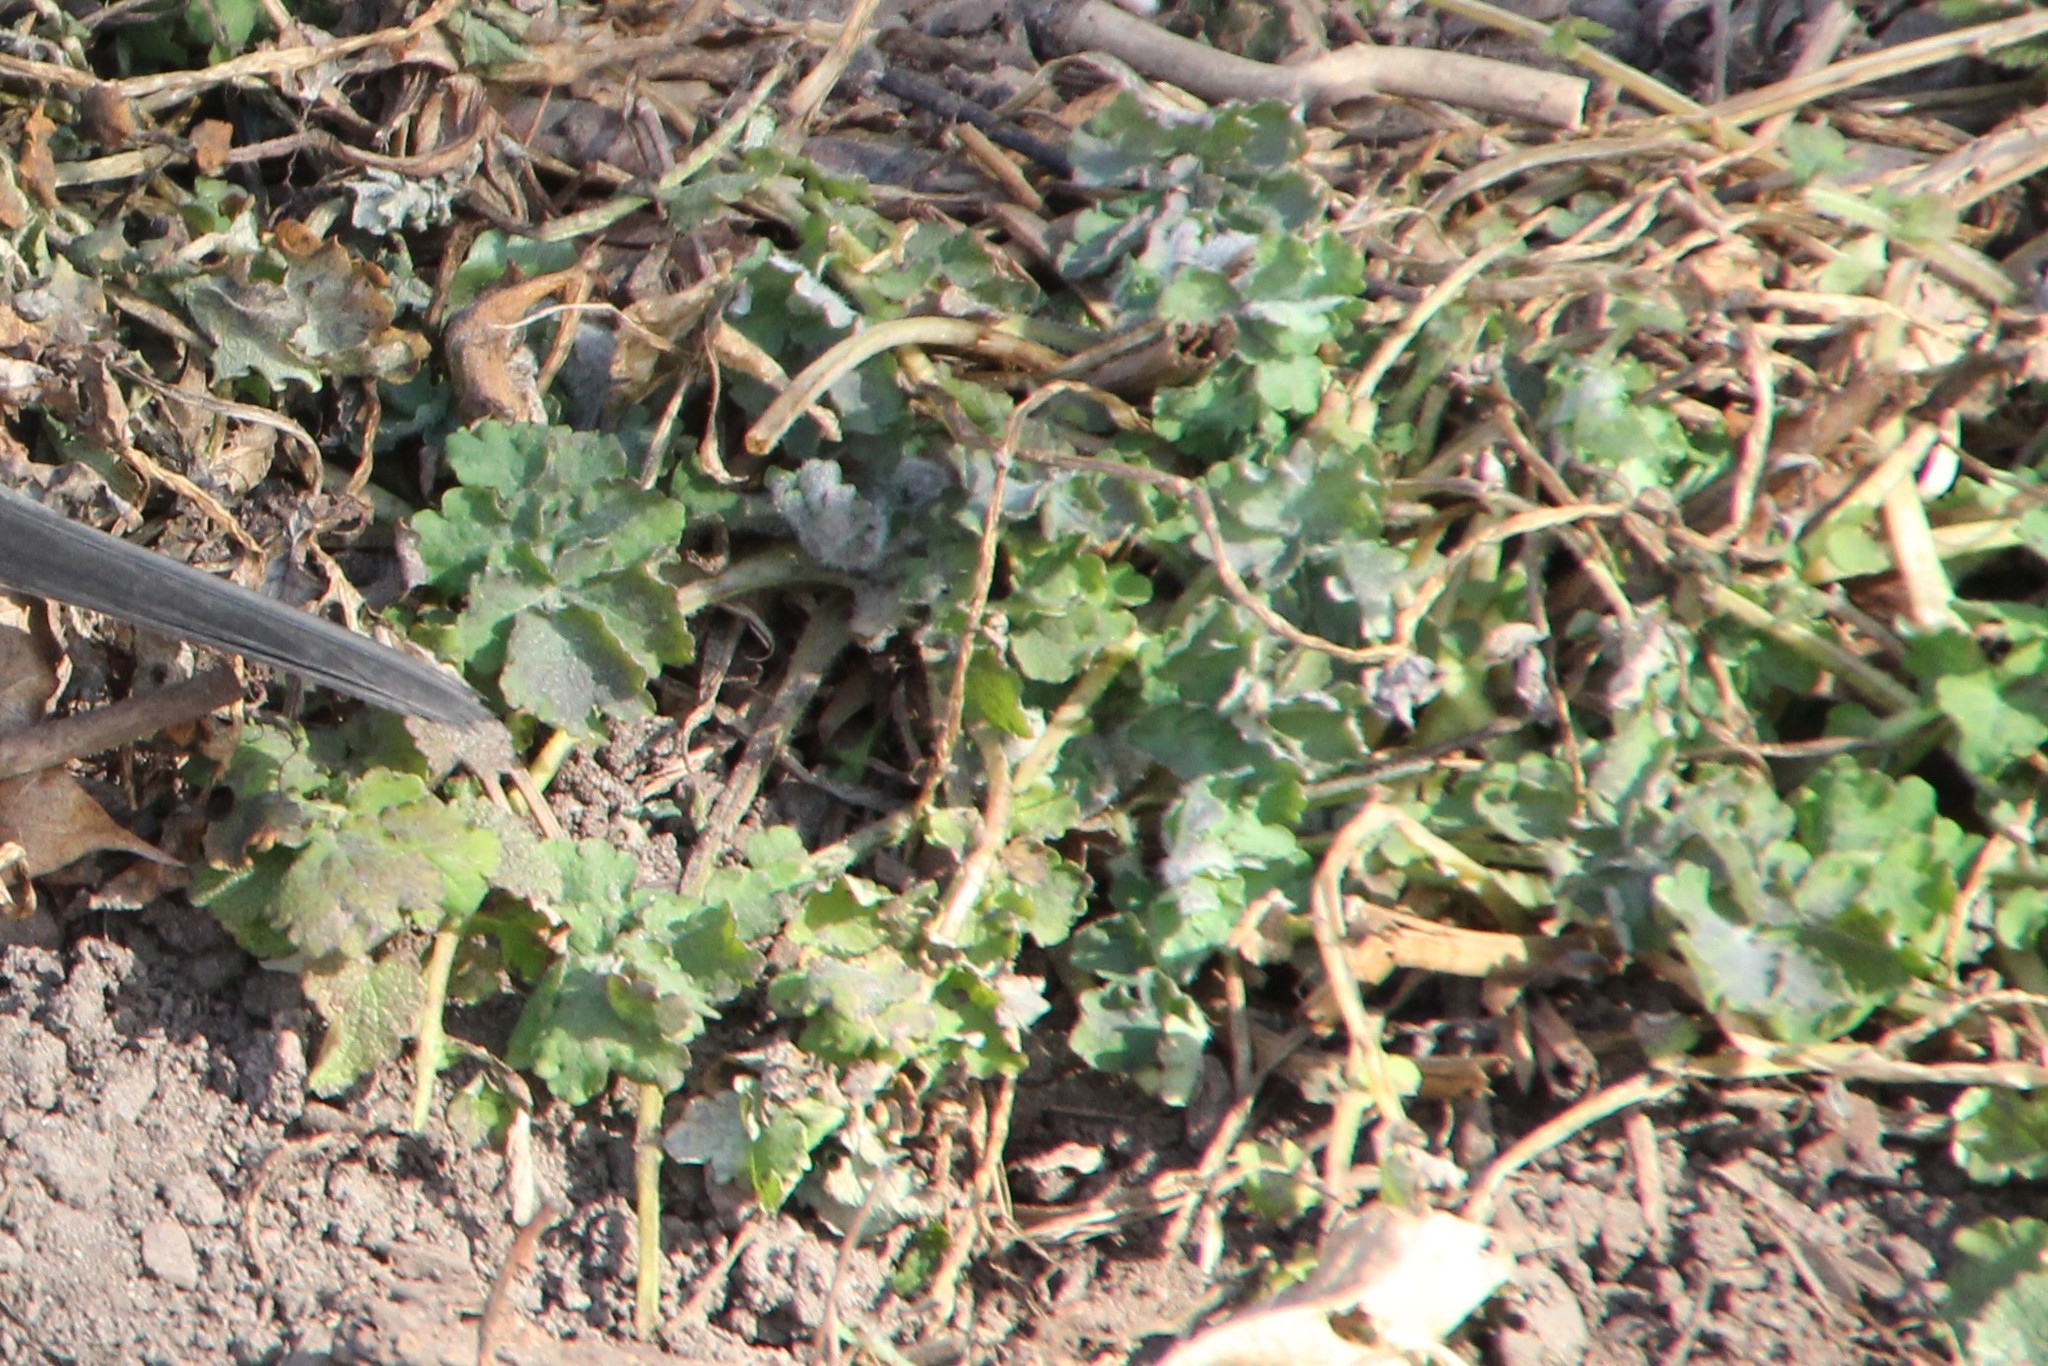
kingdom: Plantae
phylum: Tracheophyta
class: Magnoliopsida
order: Ranunculales
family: Papaveraceae
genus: Chelidonium
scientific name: Chelidonium majus
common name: Greater celandine
